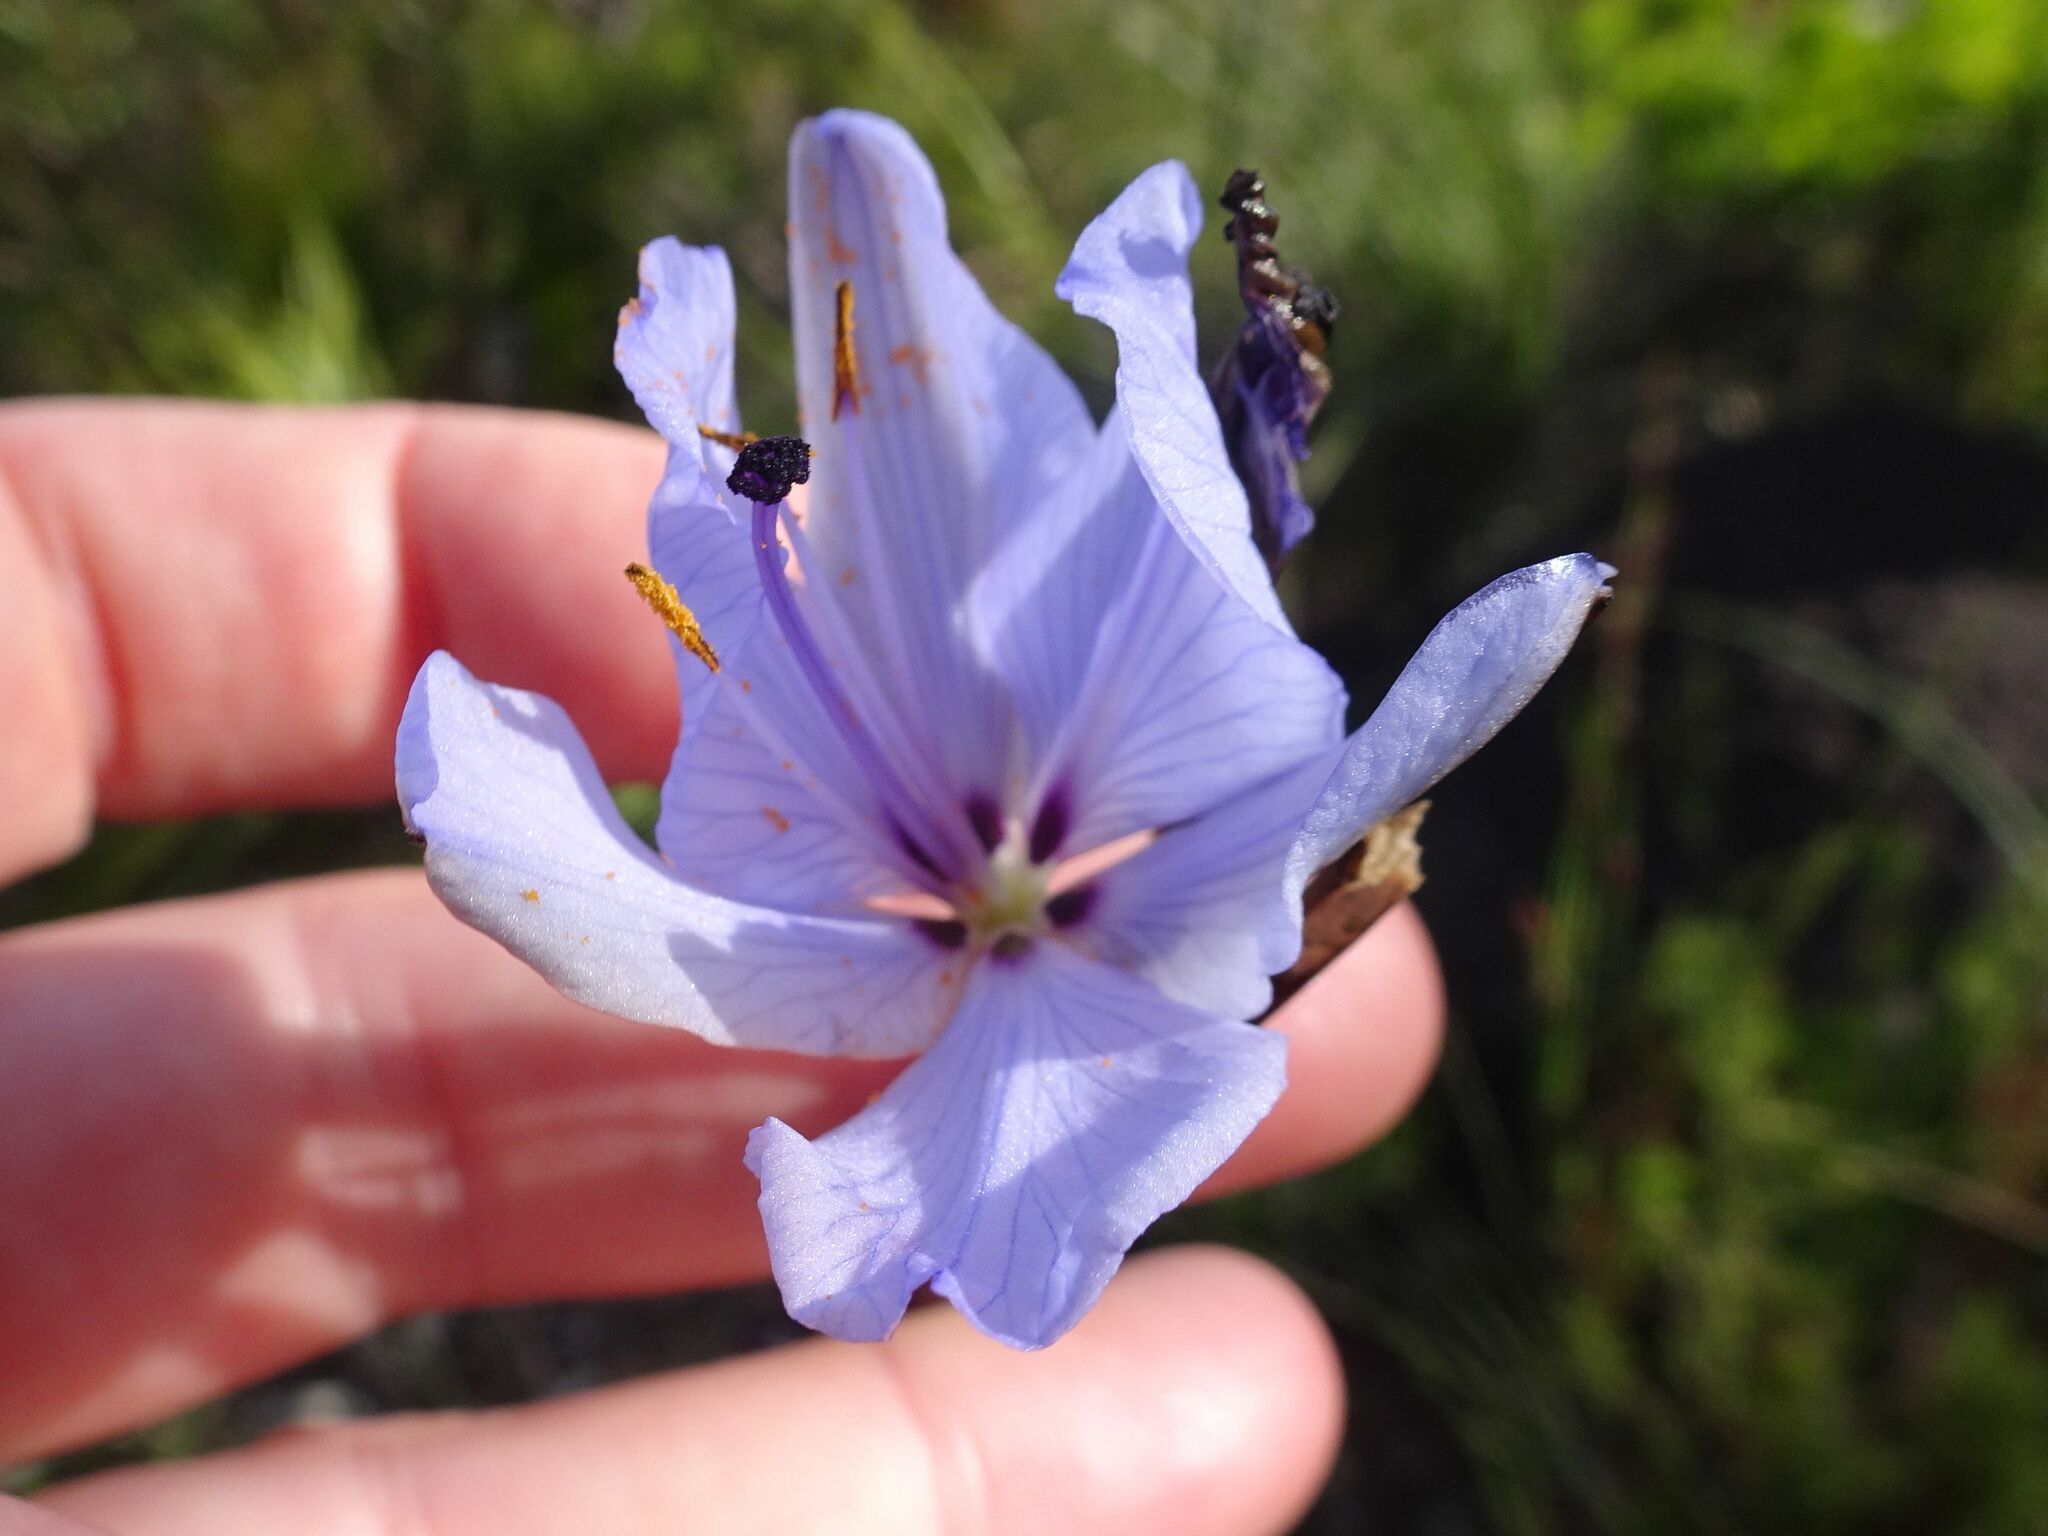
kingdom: Plantae
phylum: Tracheophyta
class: Liliopsida
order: Asparagales
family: Iridaceae
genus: Aristea
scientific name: Aristea spiralis
